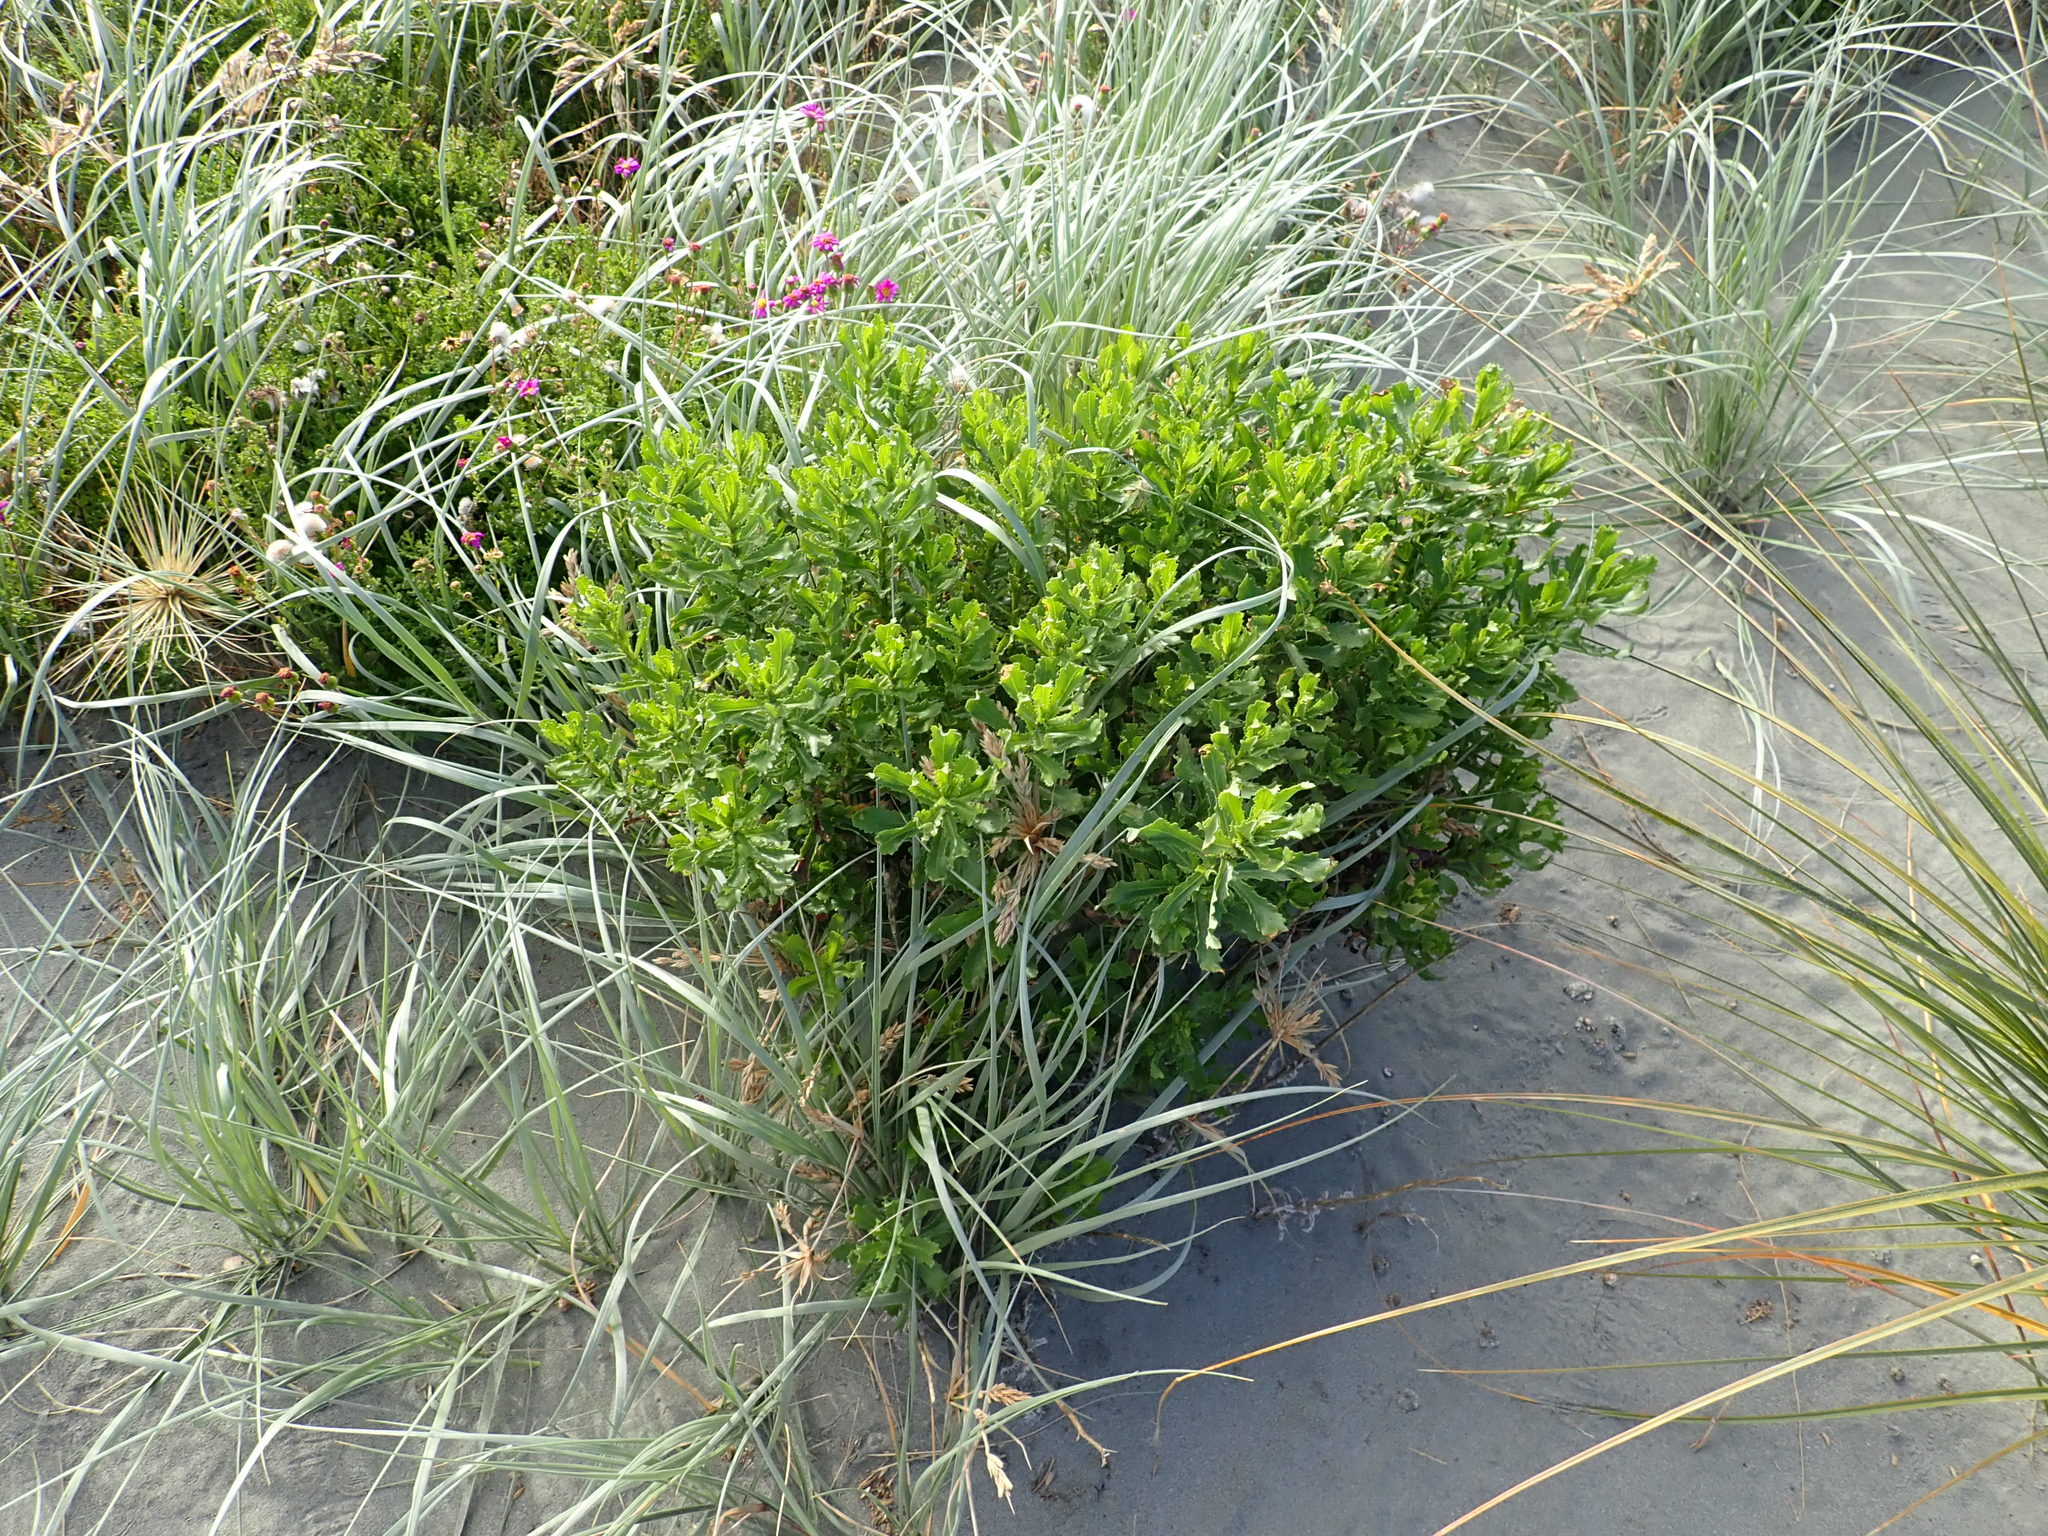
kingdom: Plantae
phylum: Tracheophyta
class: Magnoliopsida
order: Asterales
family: Asteraceae
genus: Senecio
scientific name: Senecio glastifolius
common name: Woad-leaved ragwort
